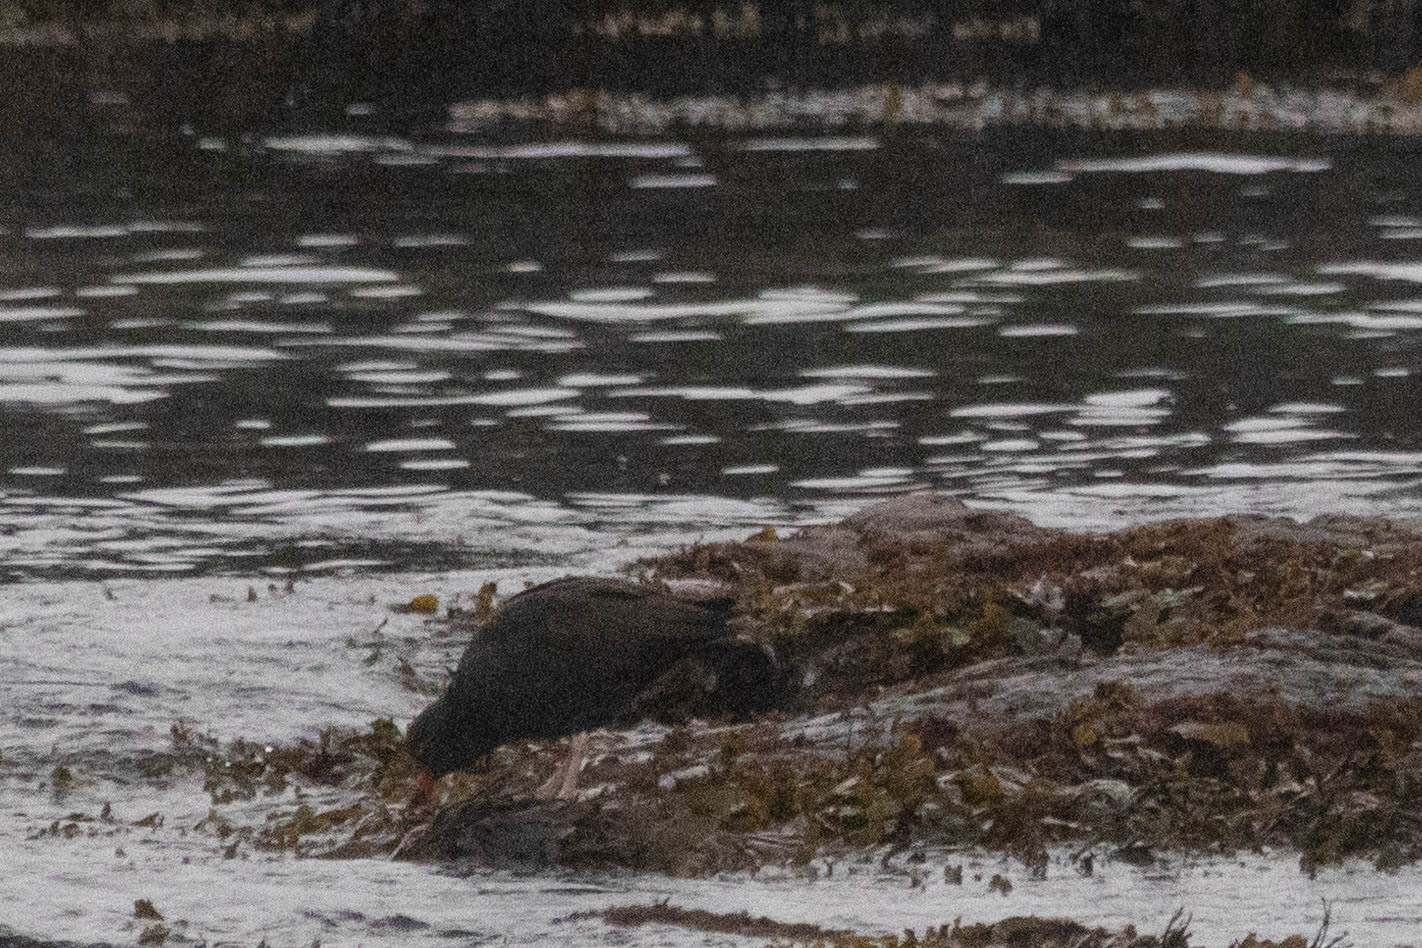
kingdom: Animalia
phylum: Chordata
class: Aves
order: Charadriiformes
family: Haematopodidae
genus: Haematopus
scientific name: Haematopus bachmani
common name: Black oystercatcher
